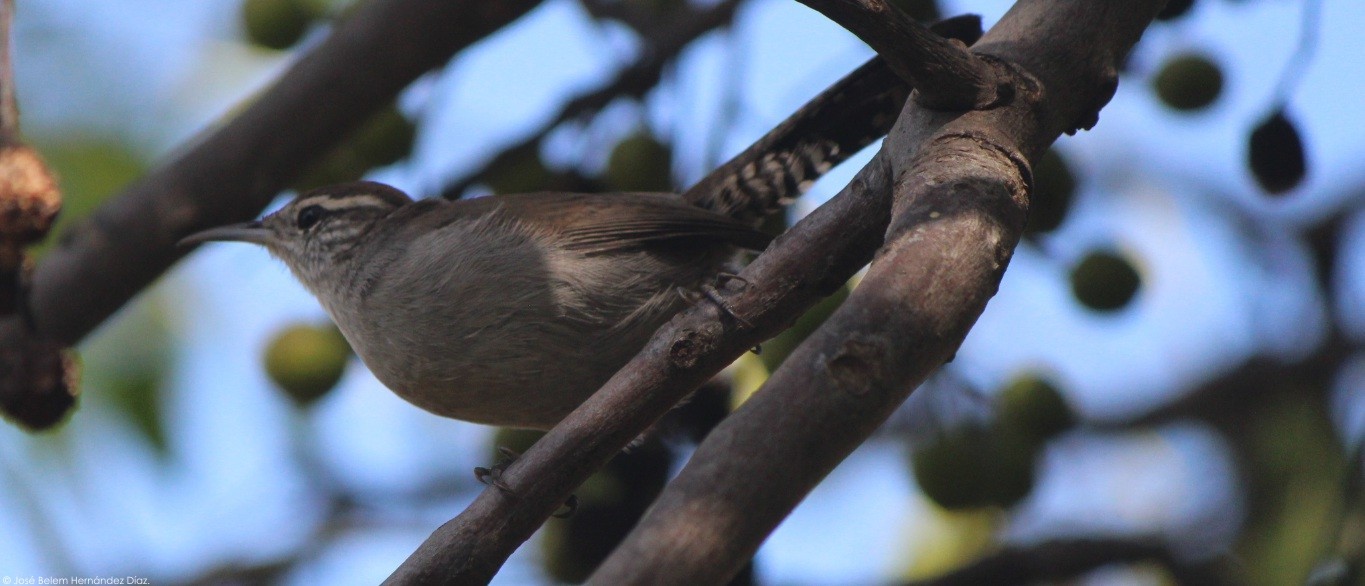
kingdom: Animalia
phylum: Chordata
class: Aves
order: Passeriformes
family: Troglodytidae
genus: Thryomanes
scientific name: Thryomanes bewickii
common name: Bewick's wren
